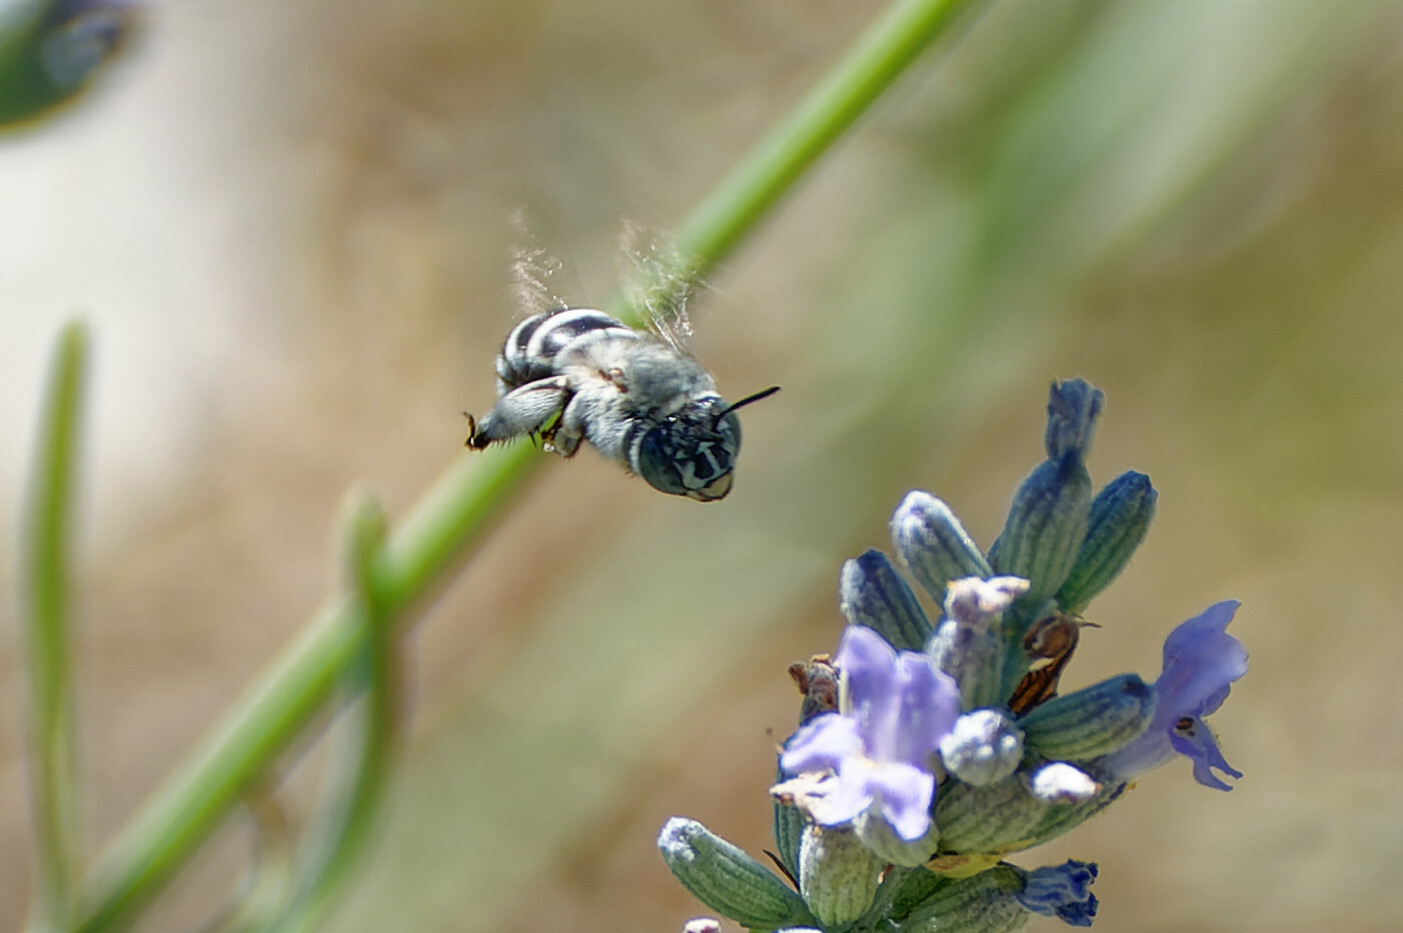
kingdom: Animalia
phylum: Arthropoda
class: Insecta
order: Hymenoptera
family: Apidae
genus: Amegilla
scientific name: Amegilla albigena
